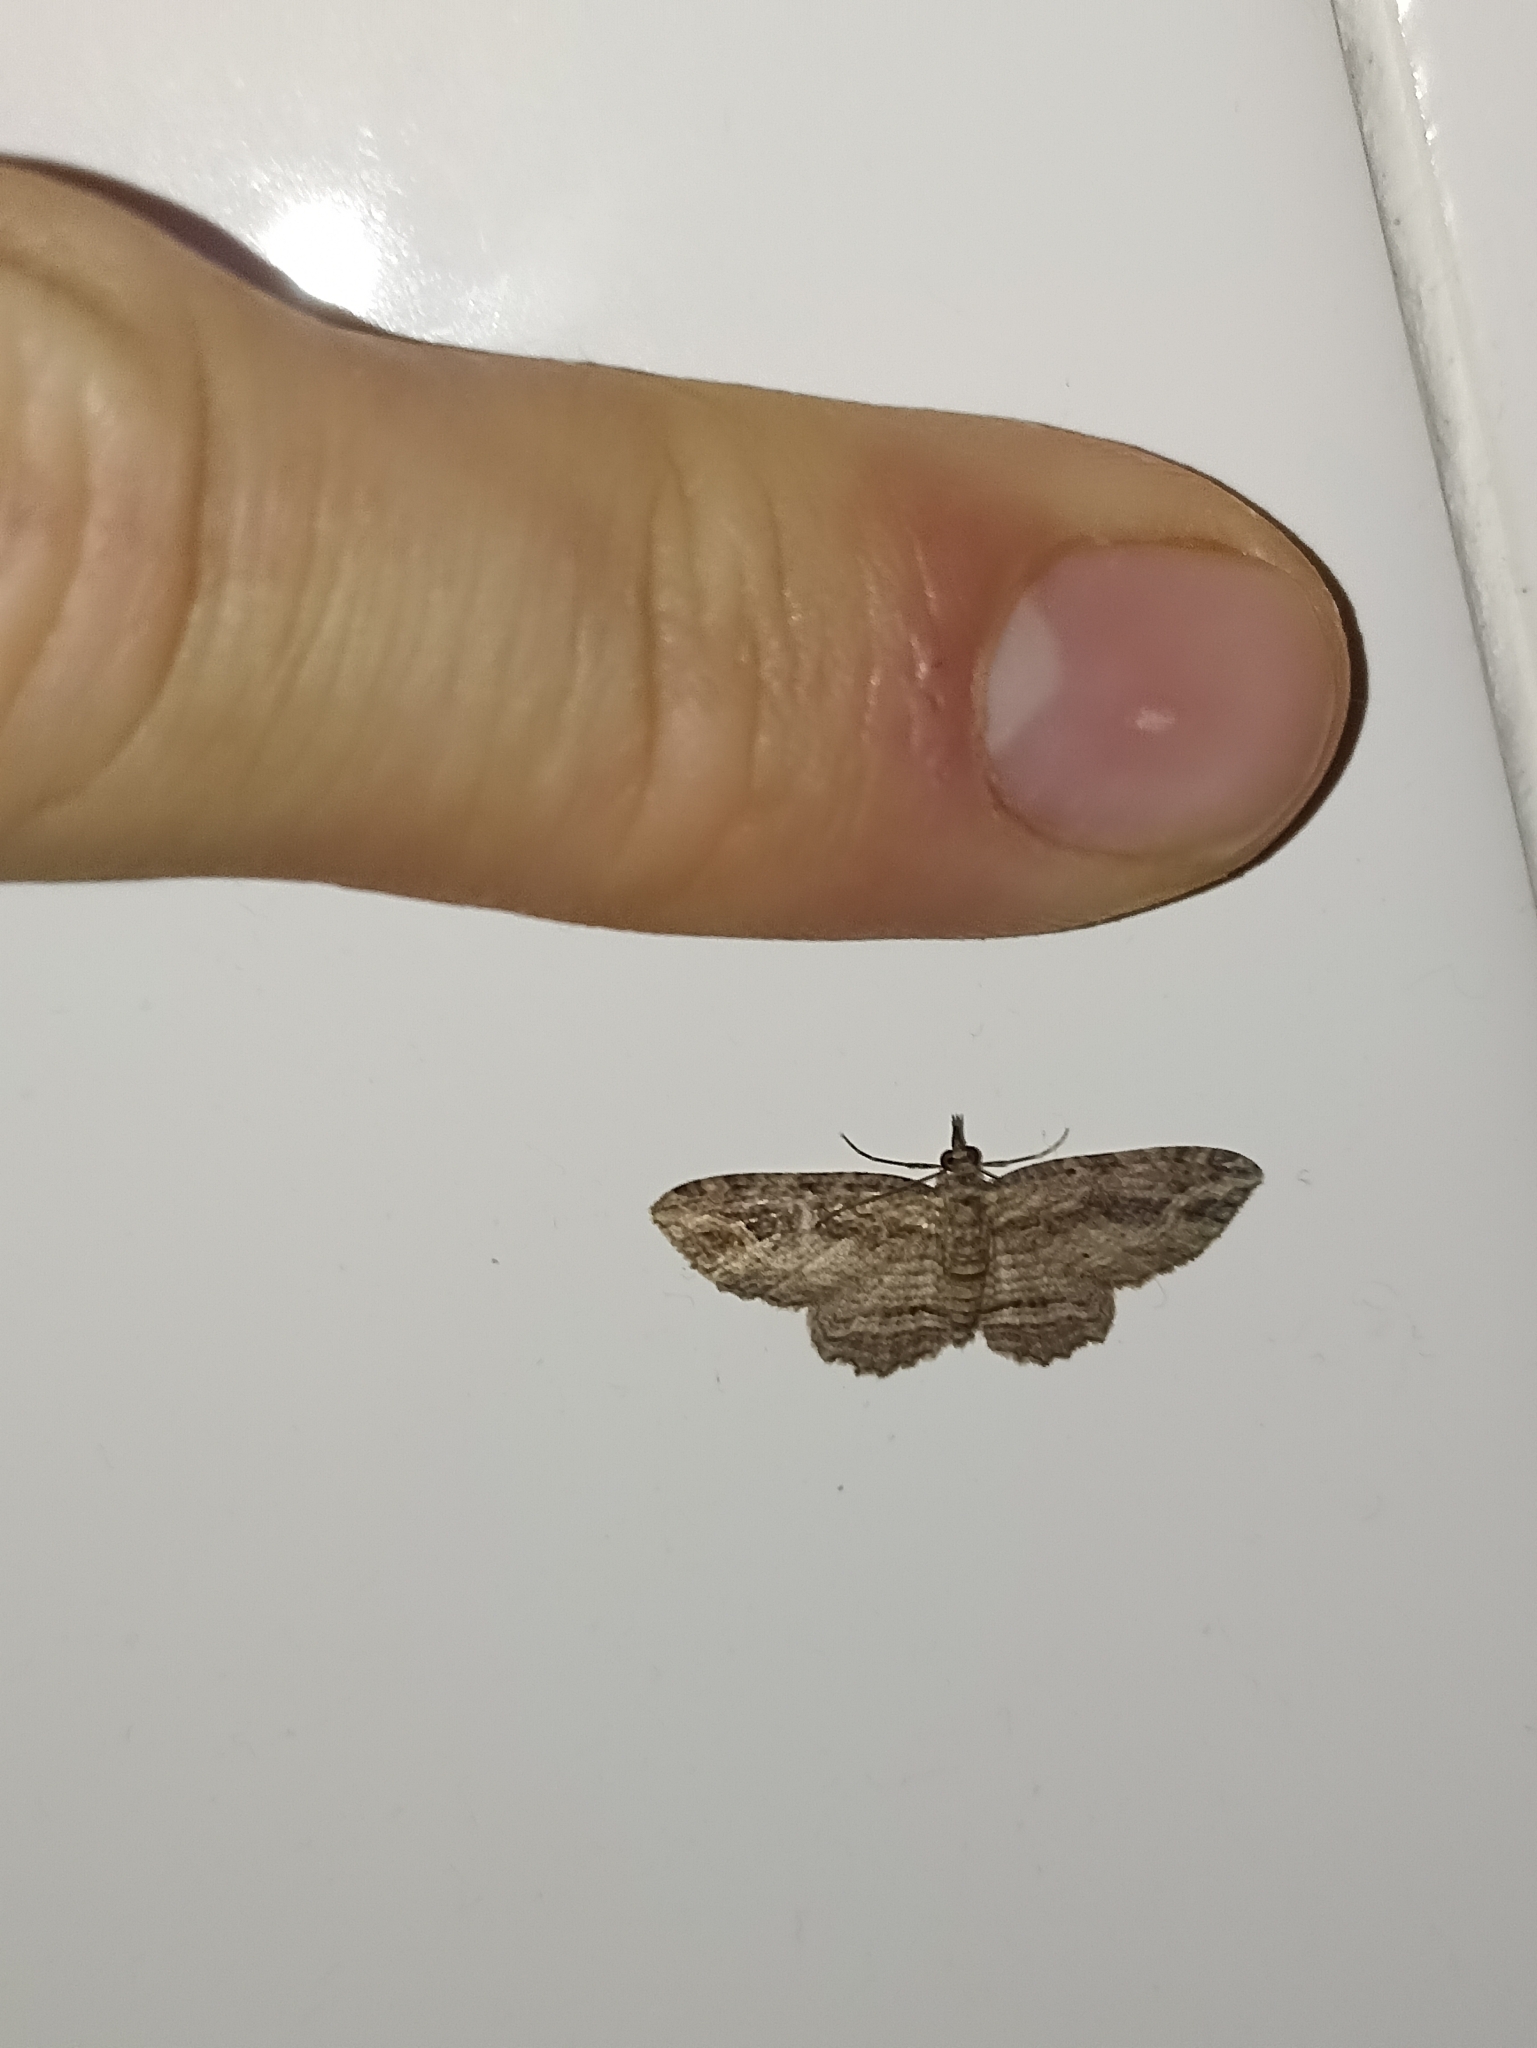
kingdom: Animalia
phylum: Arthropoda
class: Insecta
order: Lepidoptera
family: Geometridae
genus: Chloroclystis
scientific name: Chloroclystis filata
